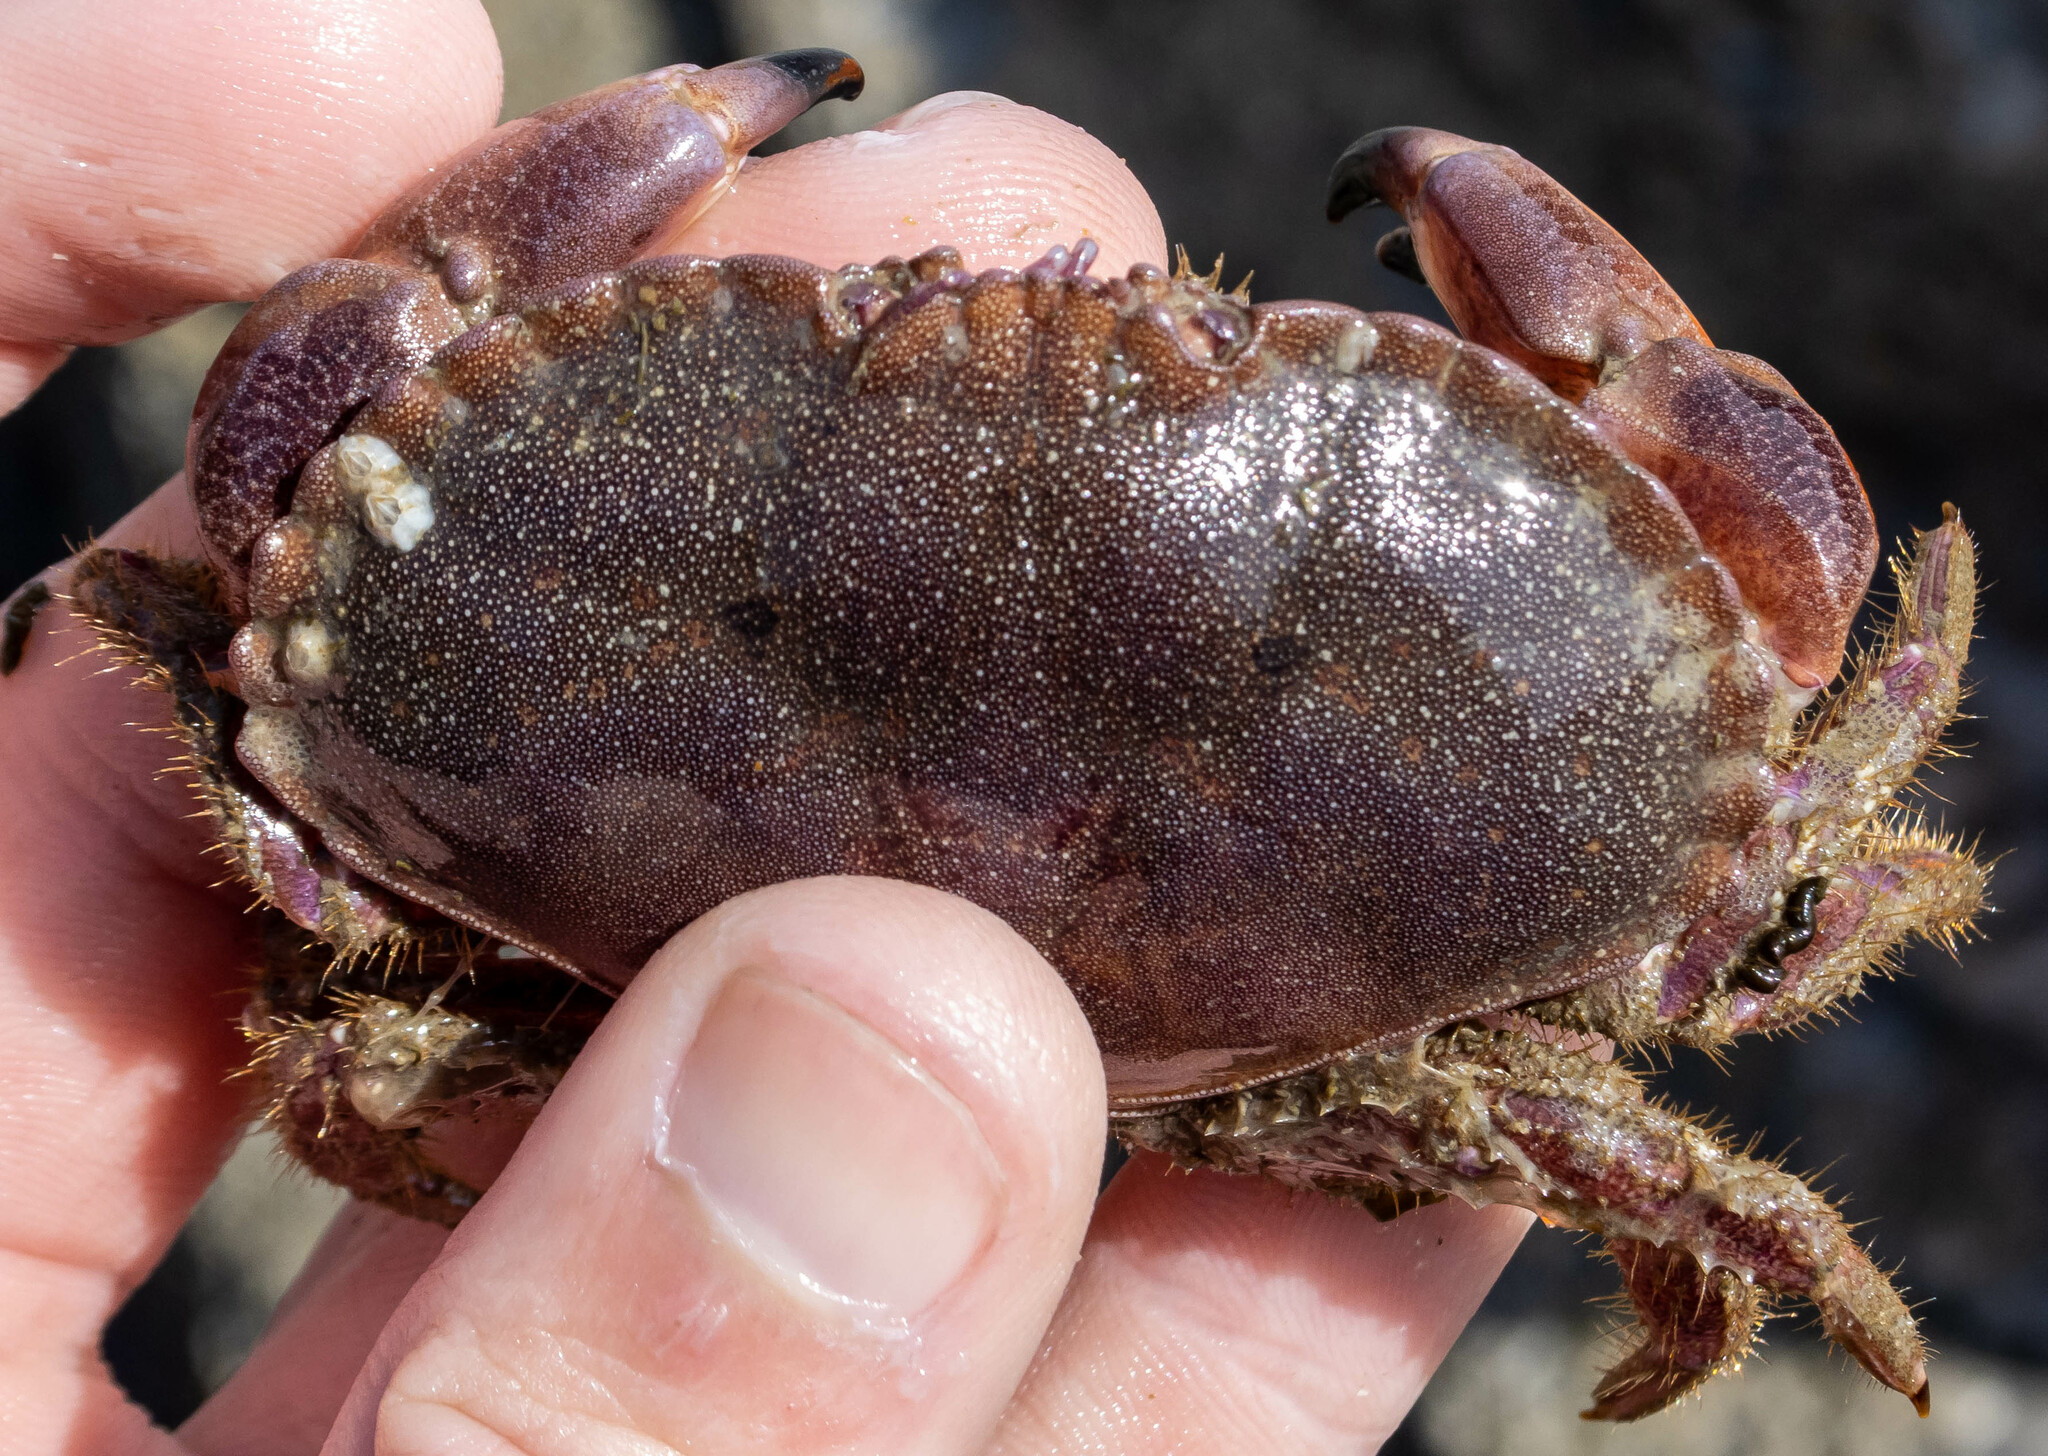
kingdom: Animalia
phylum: Arthropoda
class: Malacostraca
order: Decapoda
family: Cancridae
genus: Cancer
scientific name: Cancer pagurus
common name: Edible crab
